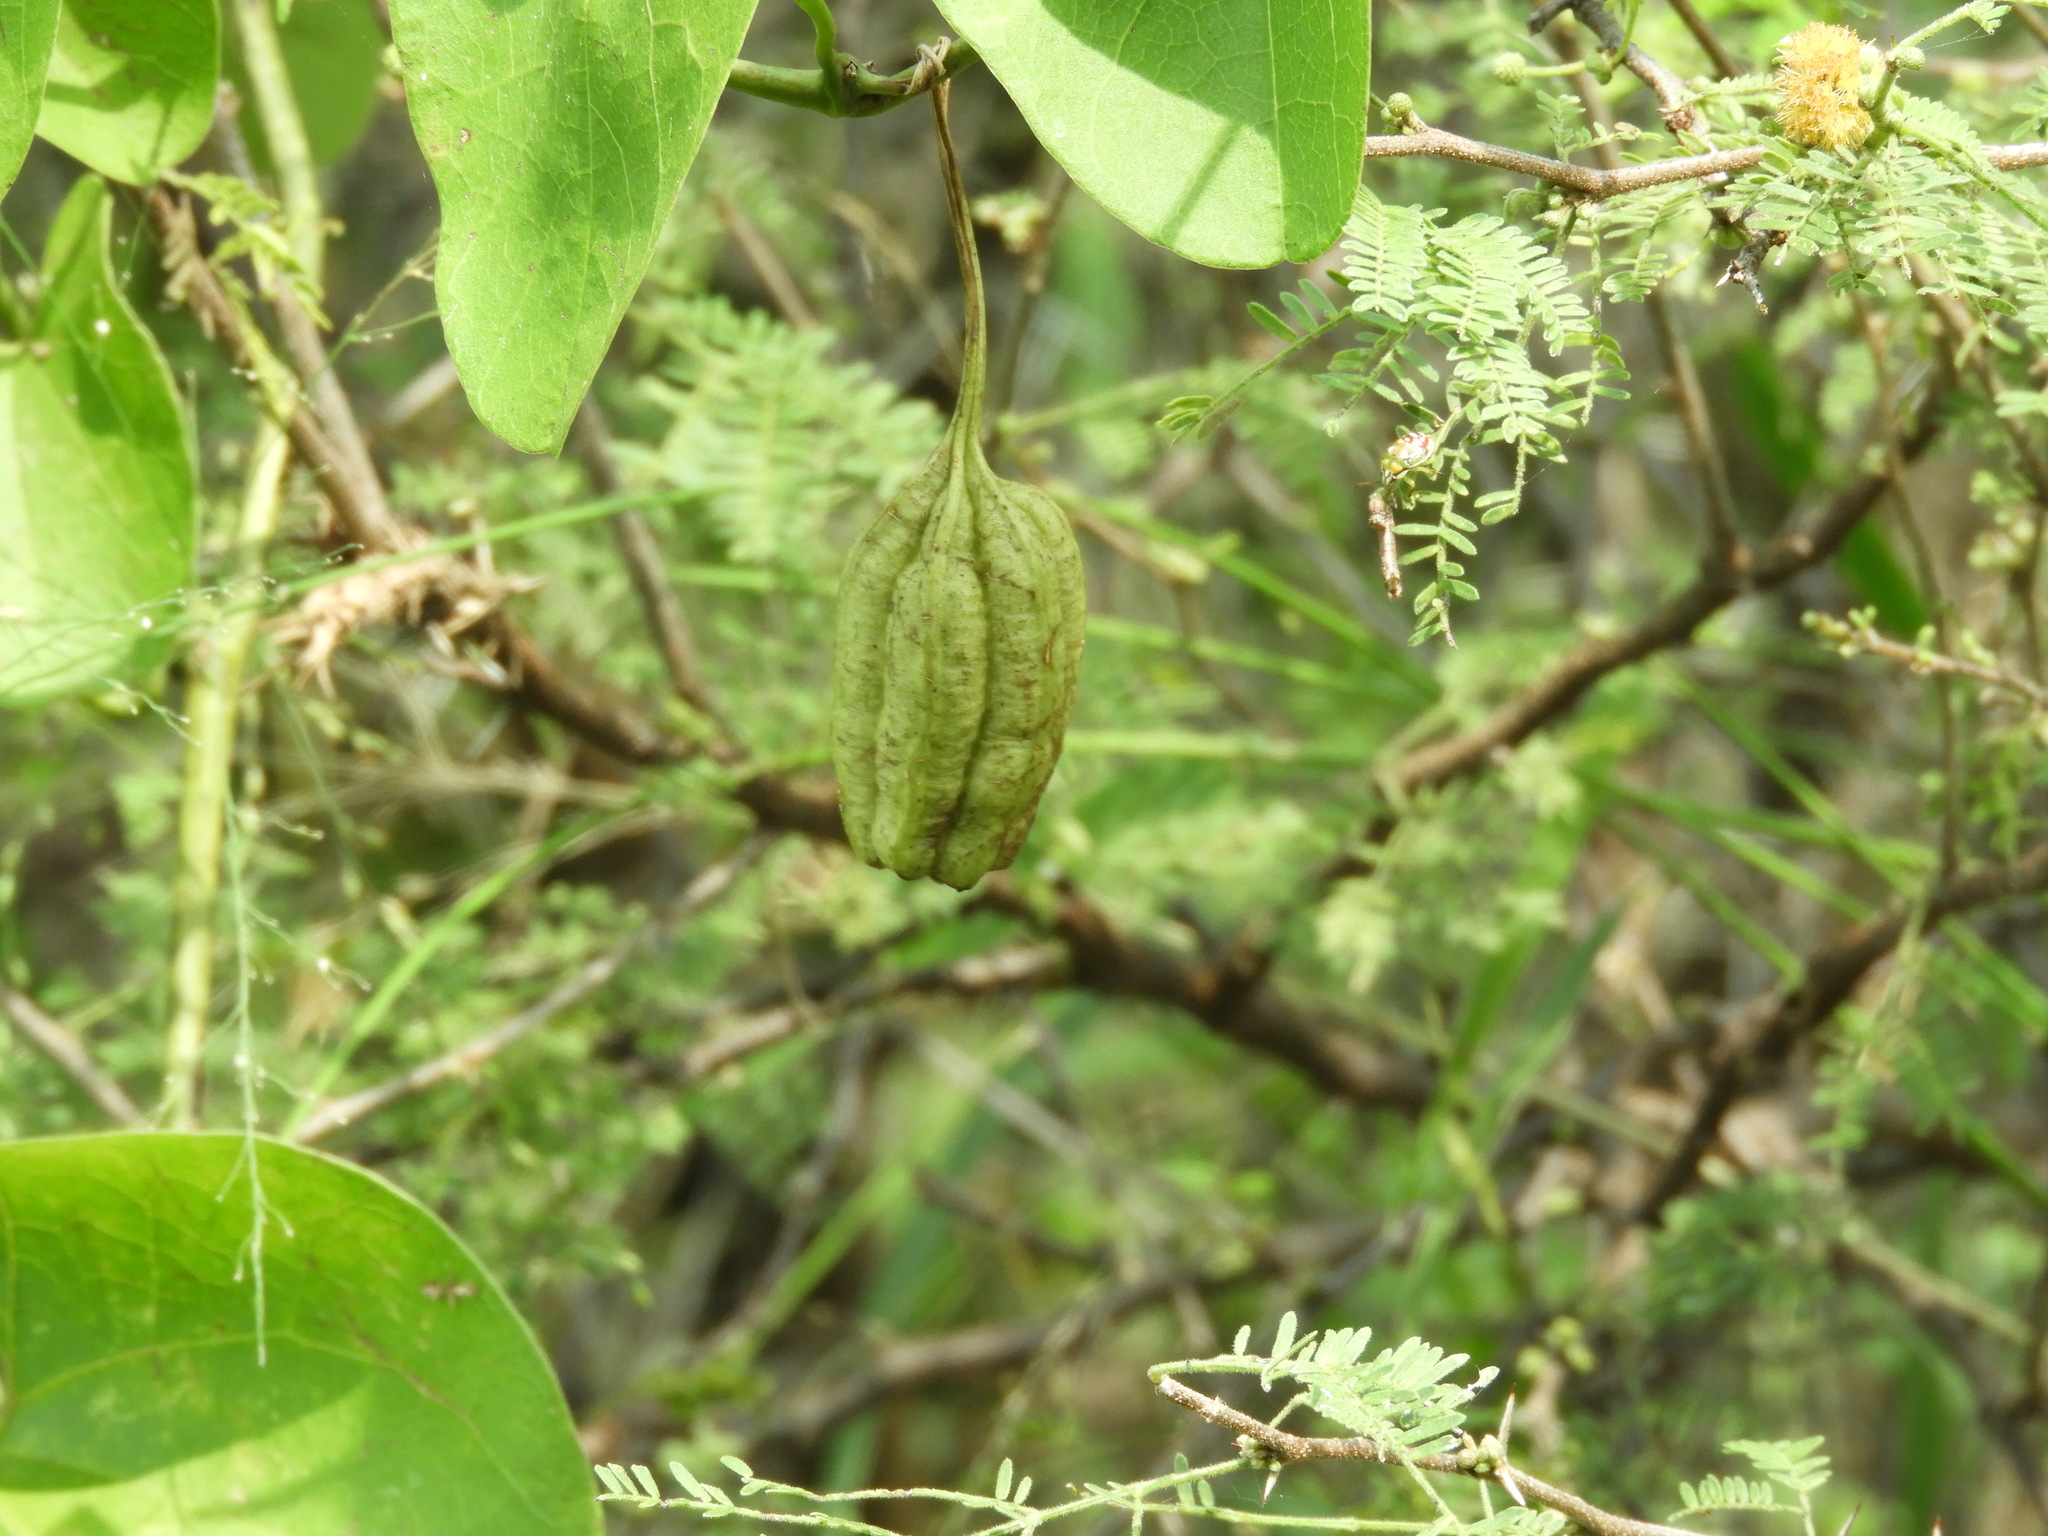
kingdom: Plantae
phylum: Tracheophyta
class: Magnoliopsida
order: Piperales
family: Aristolochiaceae
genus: Aristolochia
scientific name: Aristolochia taliscana
